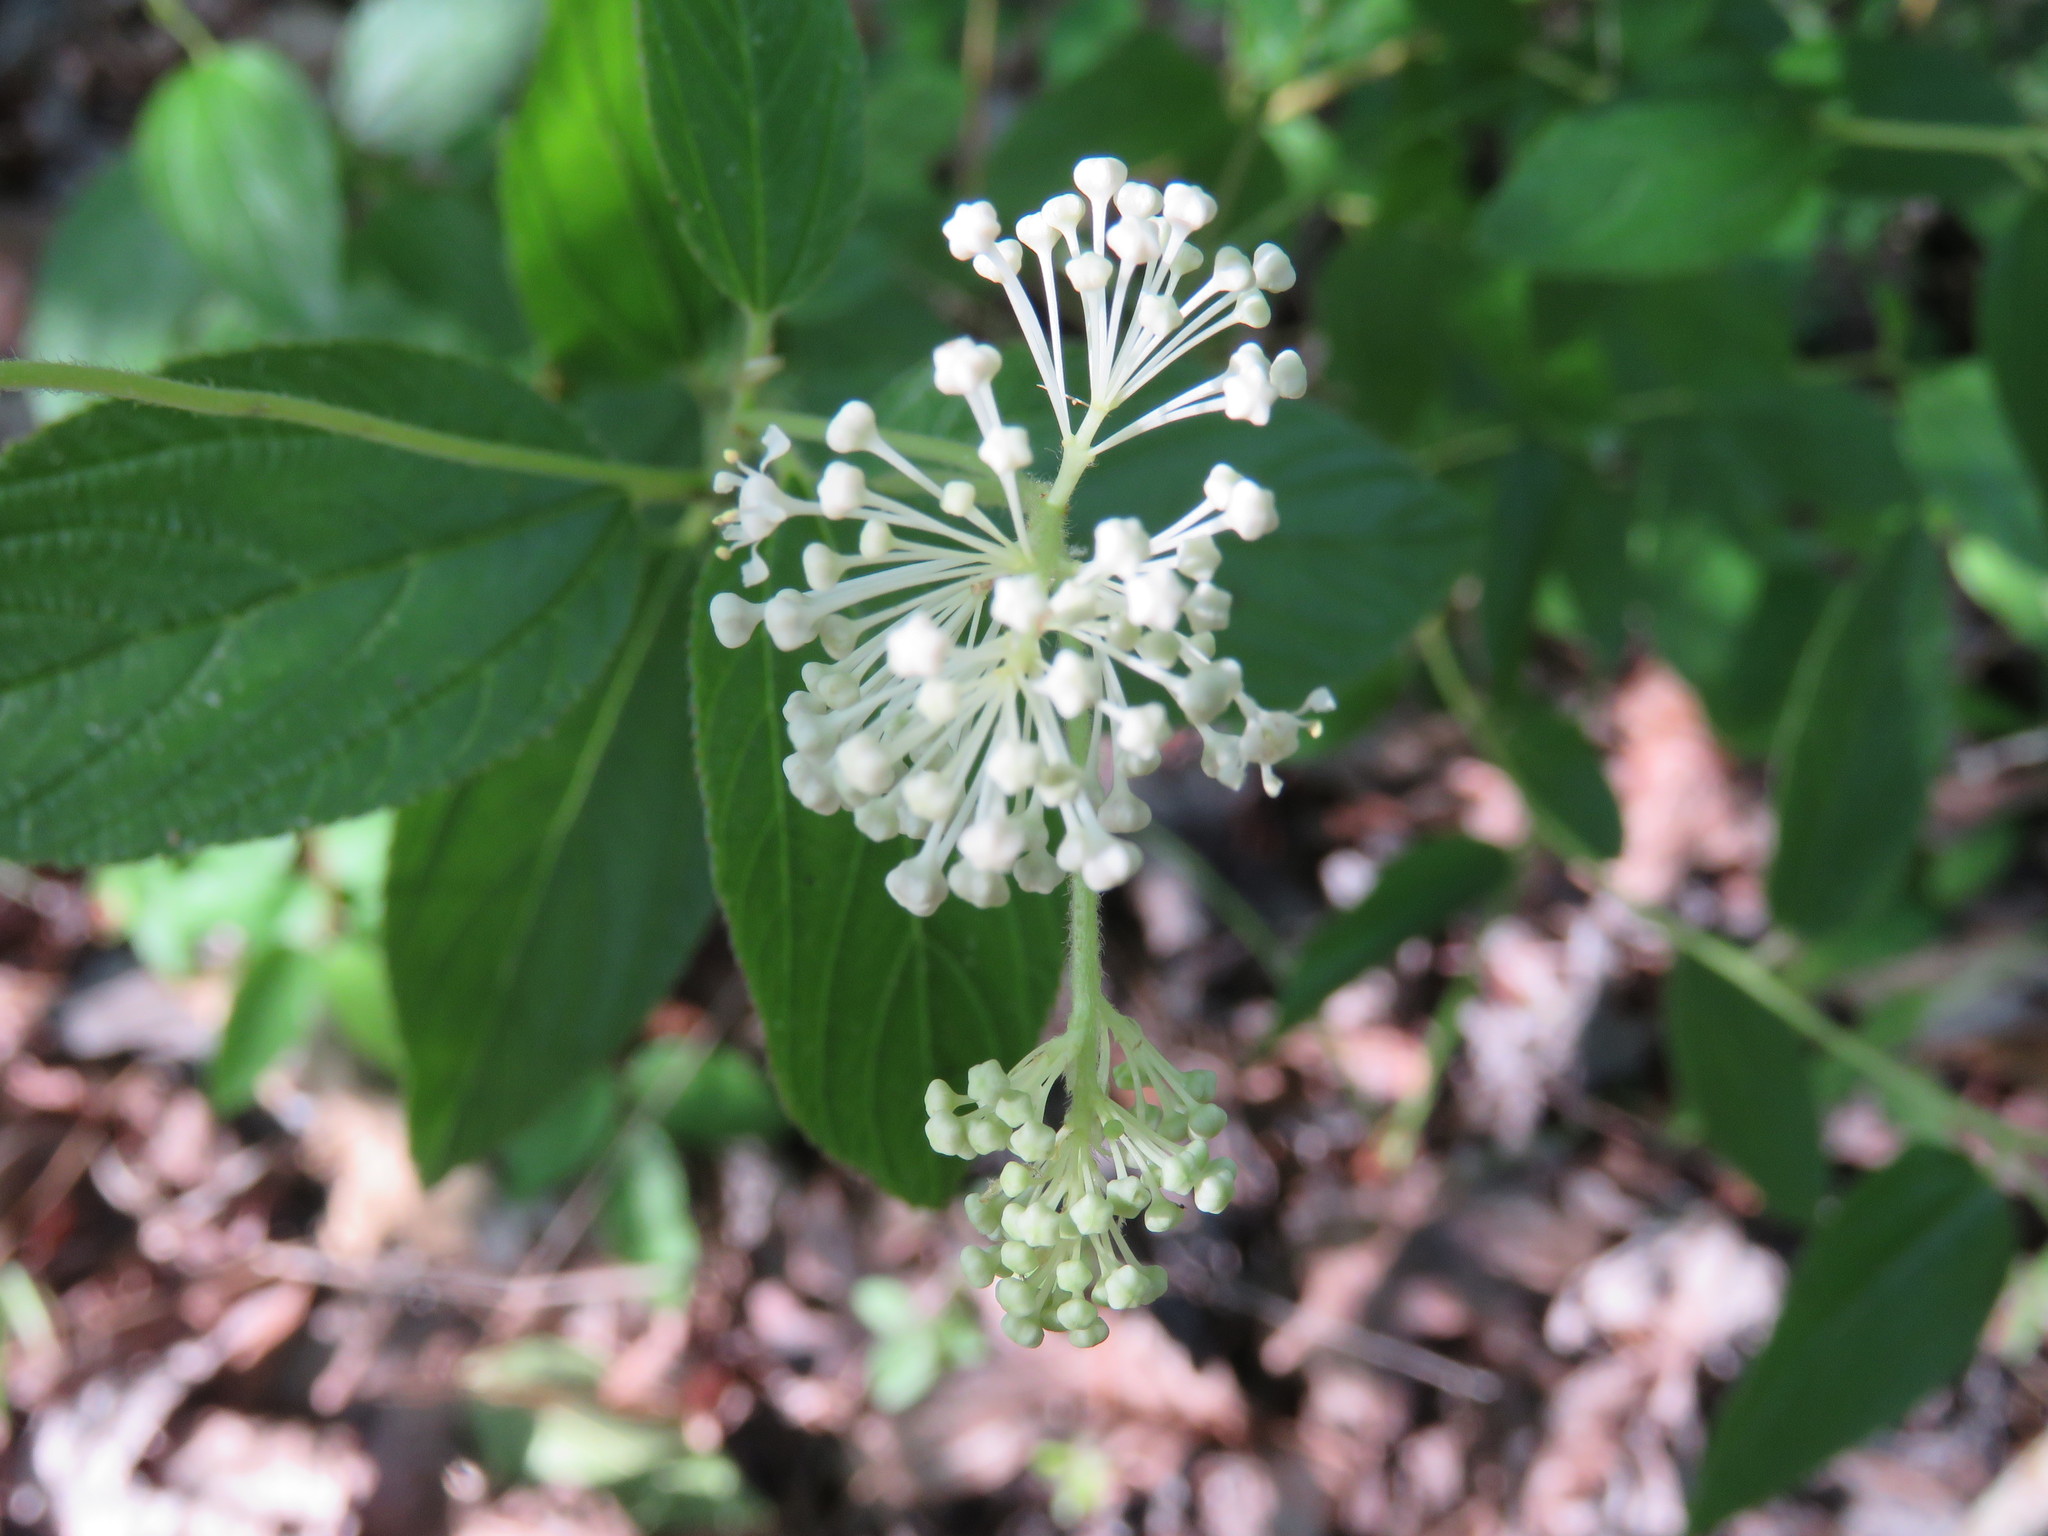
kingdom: Plantae
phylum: Tracheophyta
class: Magnoliopsida
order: Rosales
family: Rhamnaceae
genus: Ceanothus
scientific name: Ceanothus americanus
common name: Redroot
